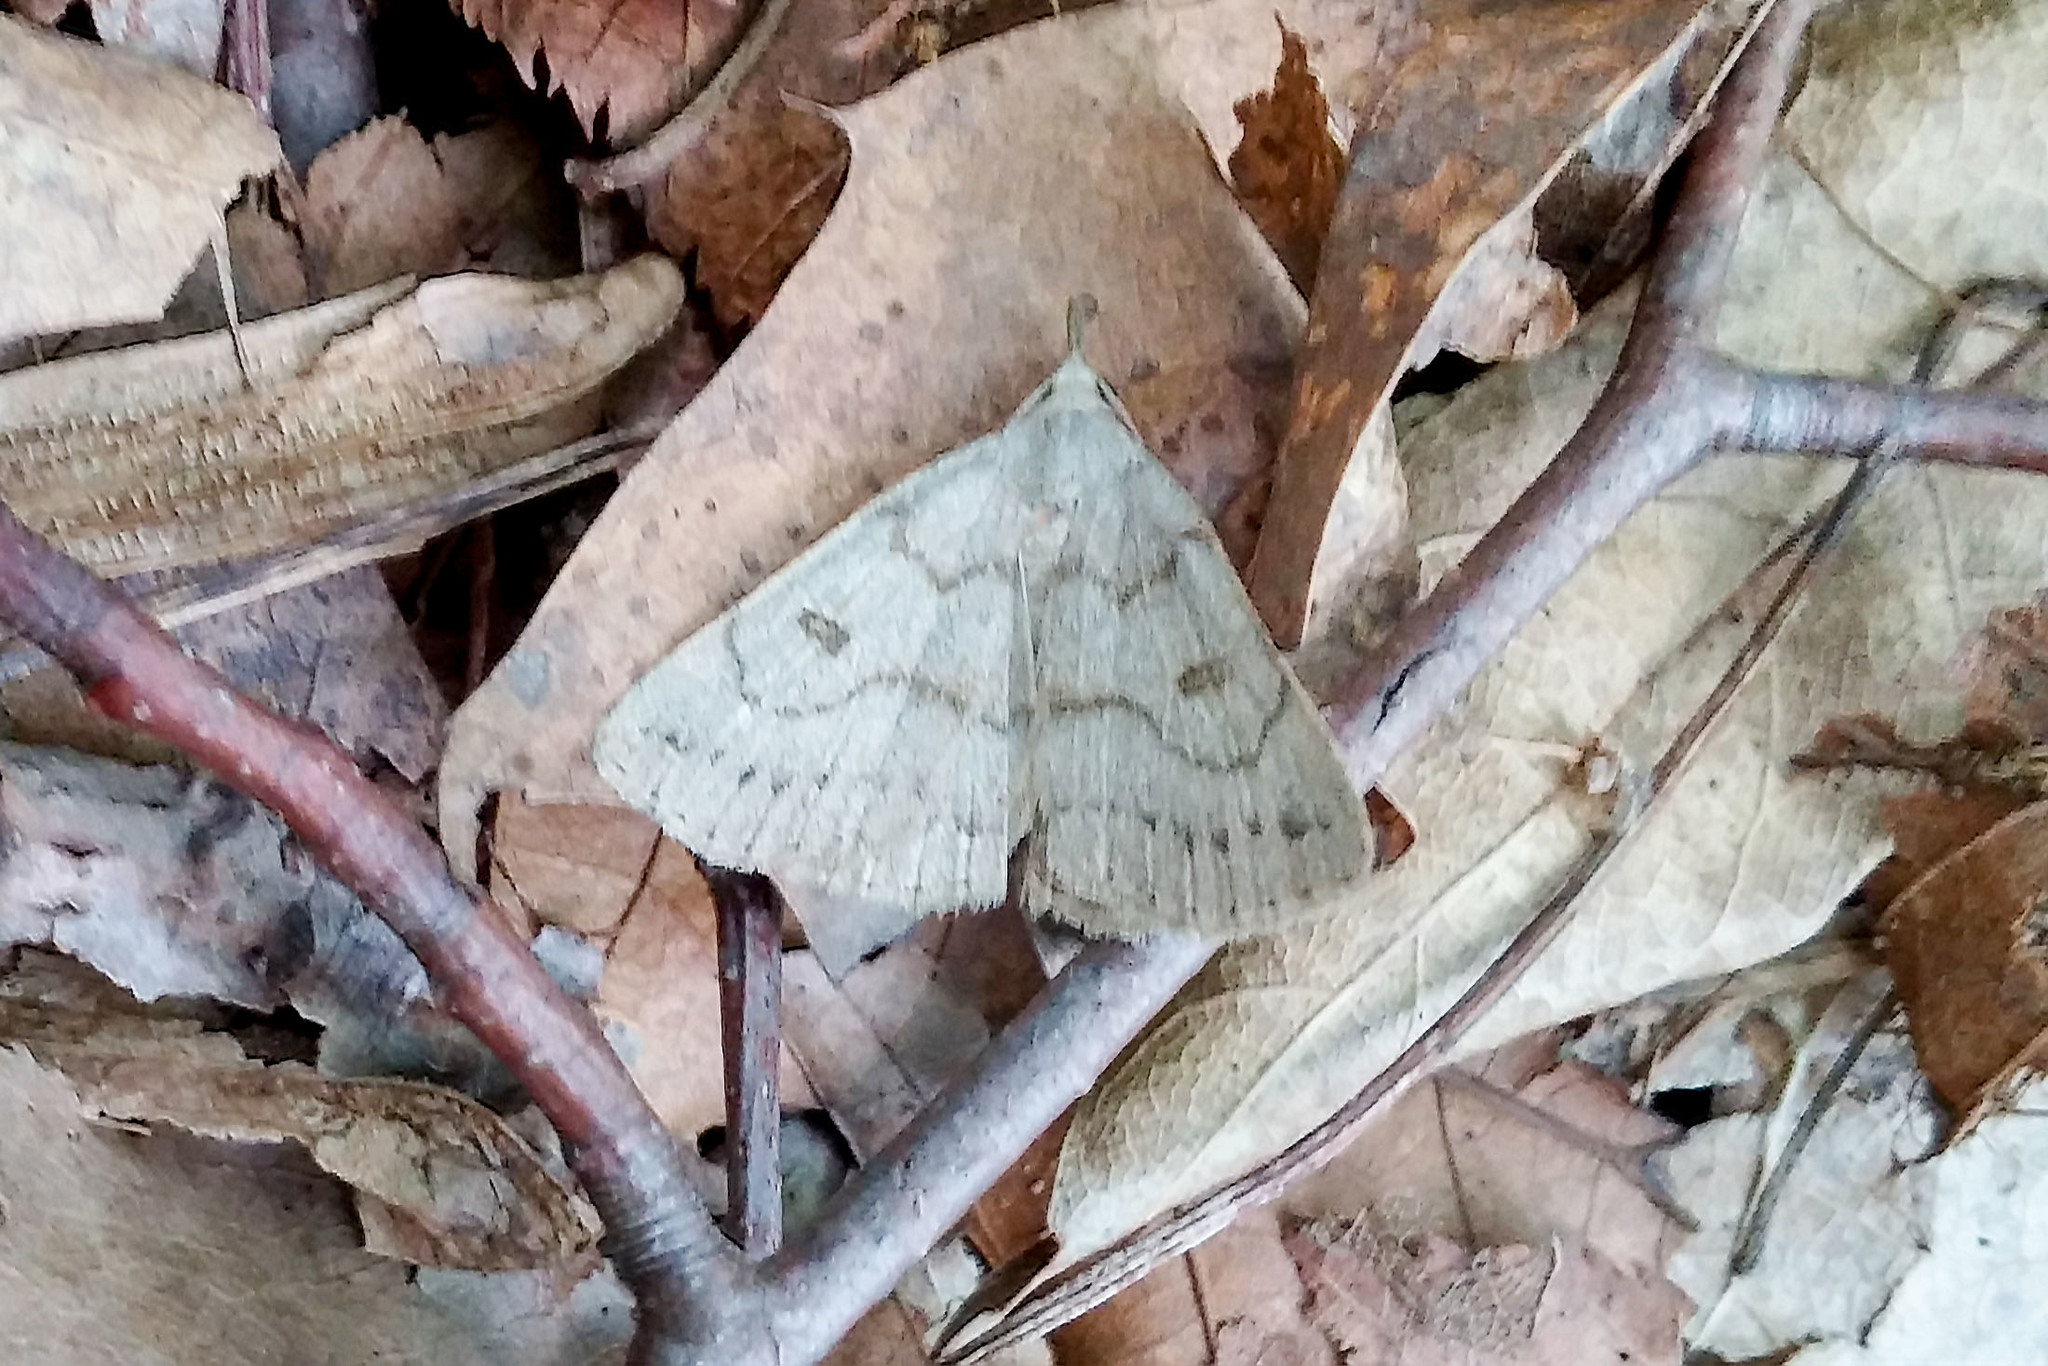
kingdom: Animalia
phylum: Arthropoda
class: Insecta
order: Lepidoptera
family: Erebidae
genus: Macrochilo
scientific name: Macrochilo morbidalis
